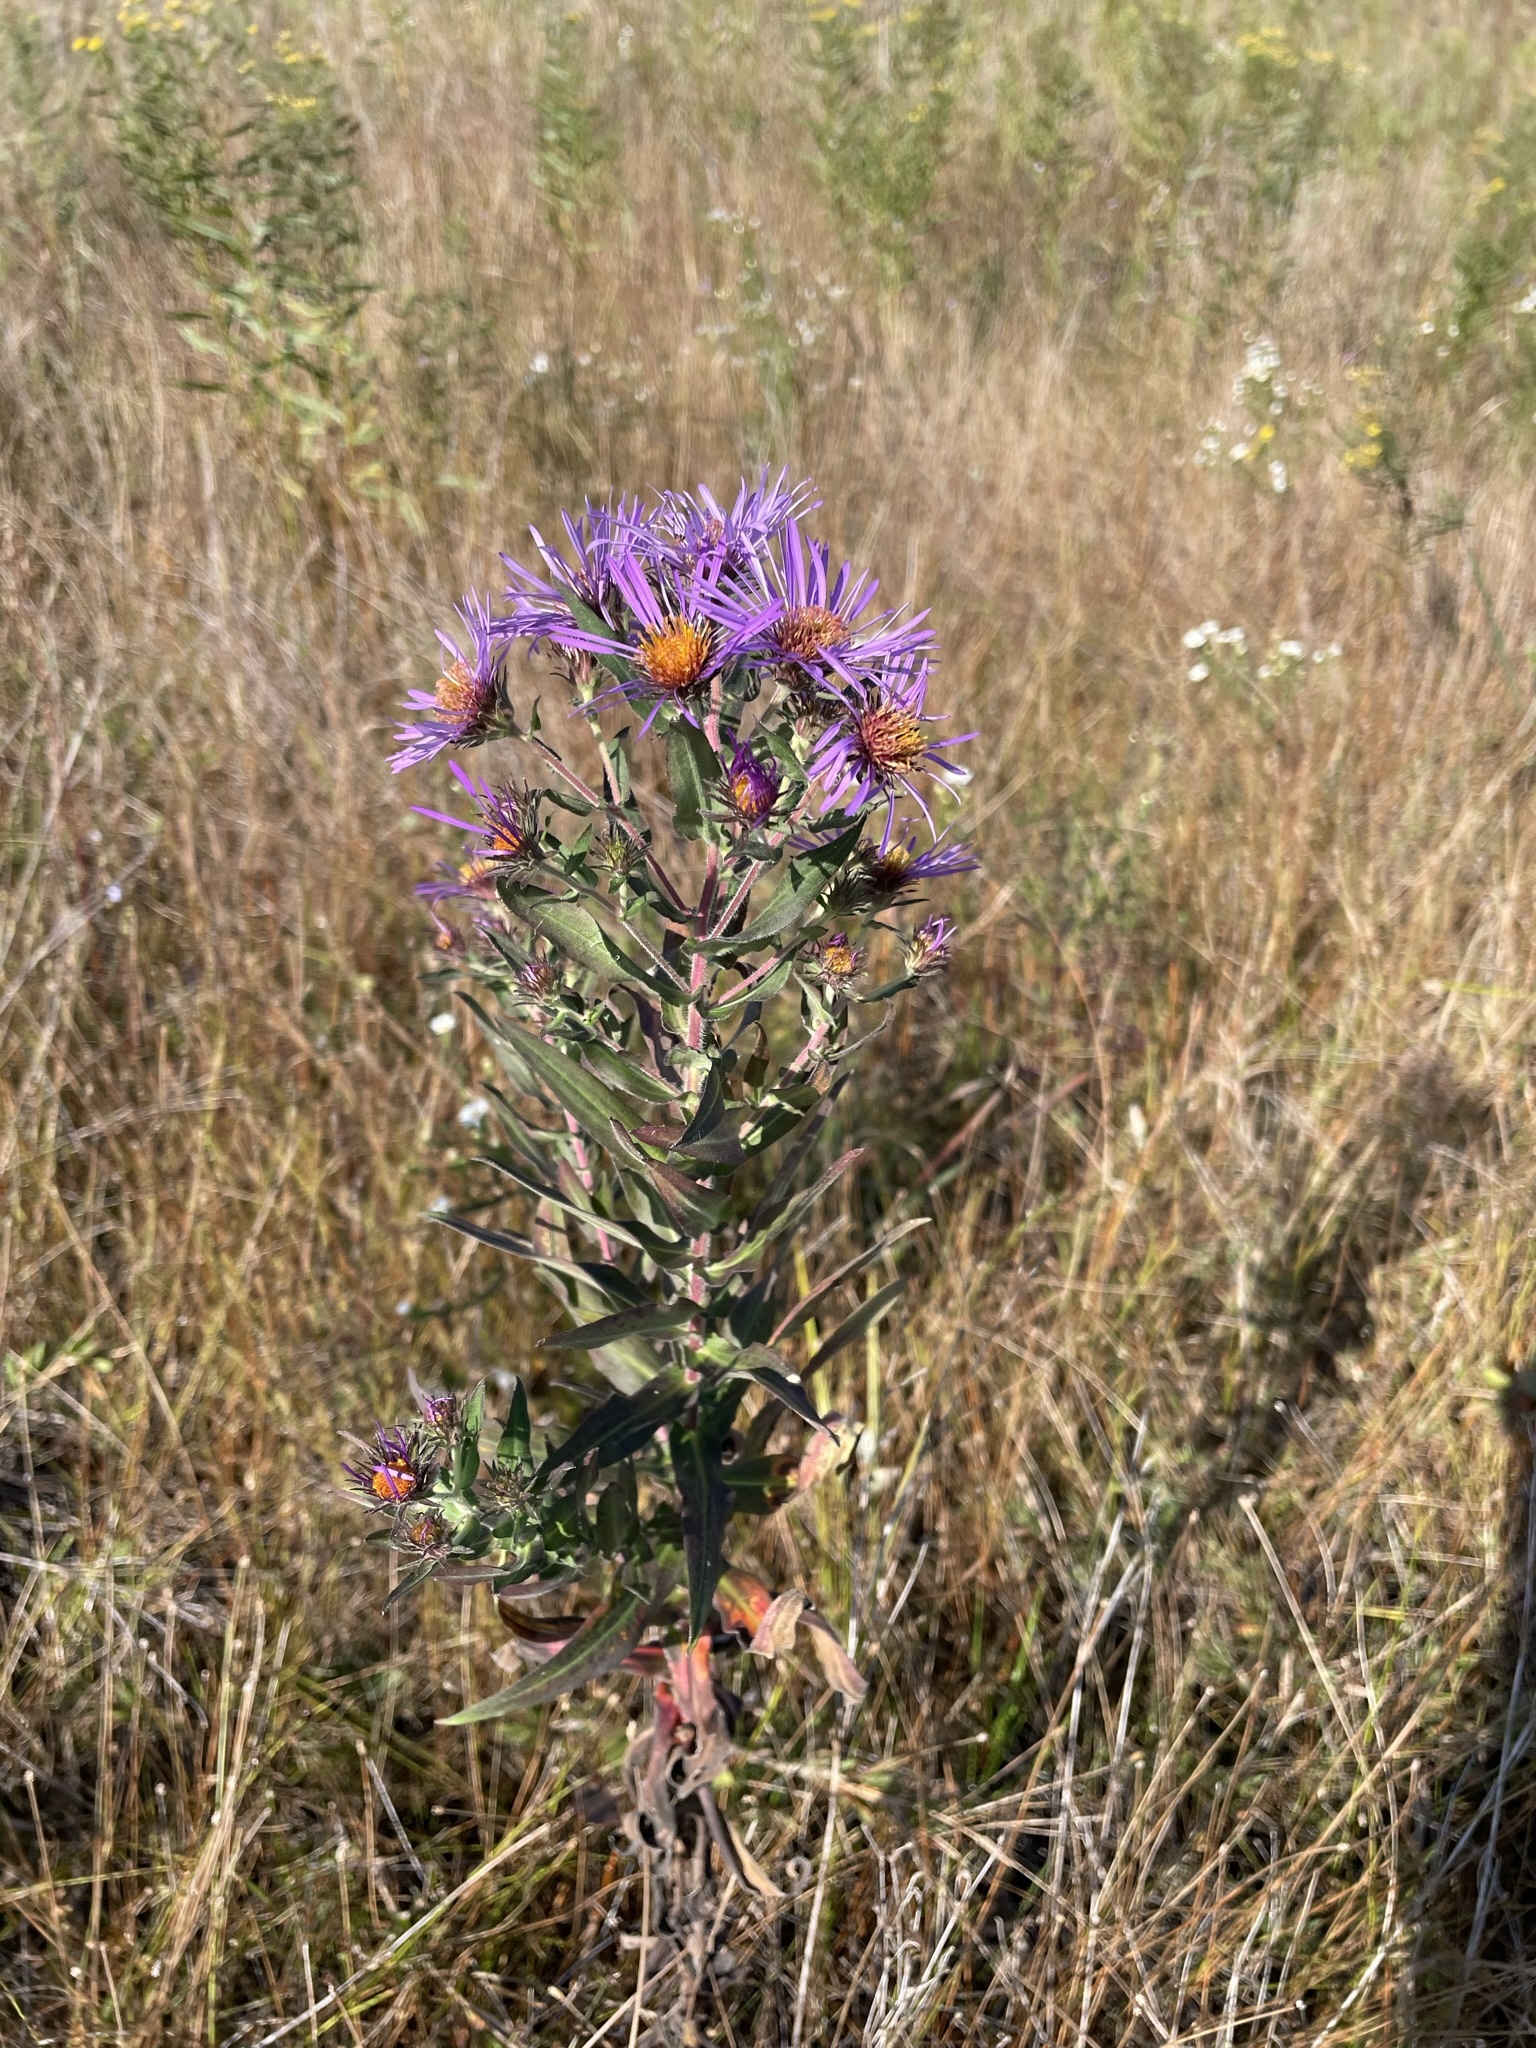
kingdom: Plantae
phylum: Tracheophyta
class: Magnoliopsida
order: Asterales
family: Asteraceae
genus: Symphyotrichum
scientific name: Symphyotrichum novae-angliae
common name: Michaelmas daisy
